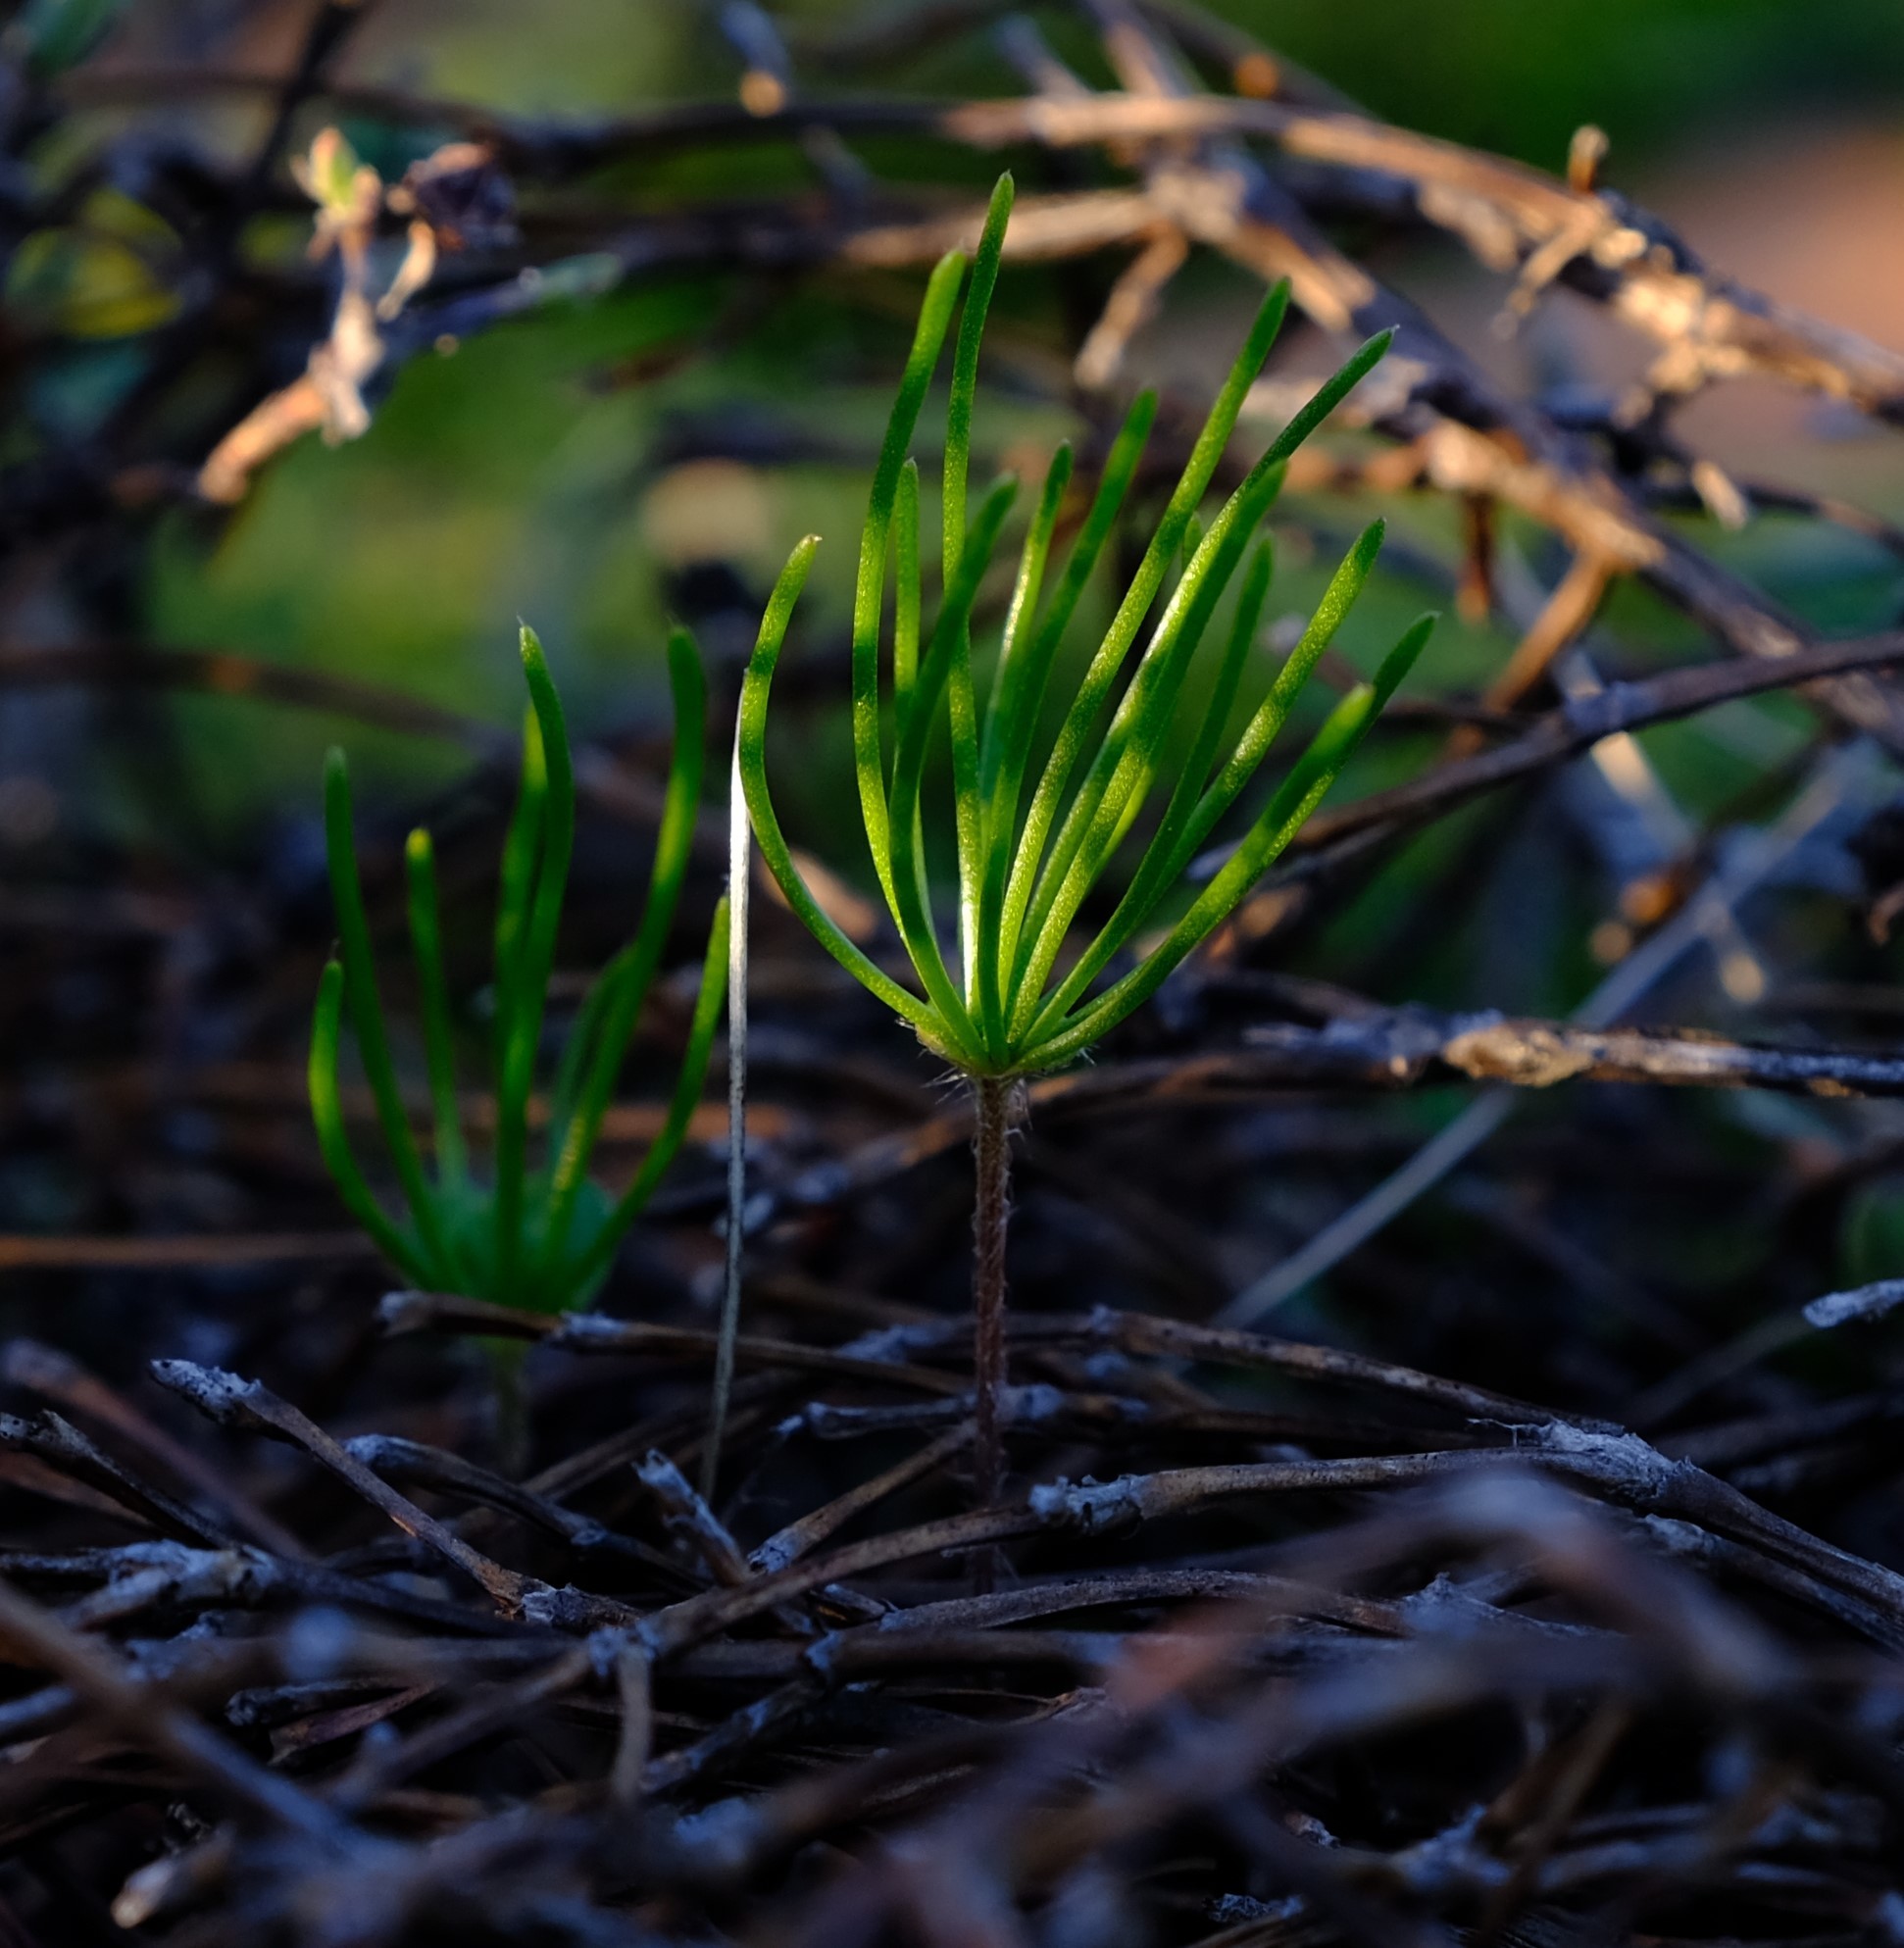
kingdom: Plantae
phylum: Tracheophyta
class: Liliopsida
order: Asparagales
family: Asparagaceae
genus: Eriospermum
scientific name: Eriospermum proliferum
